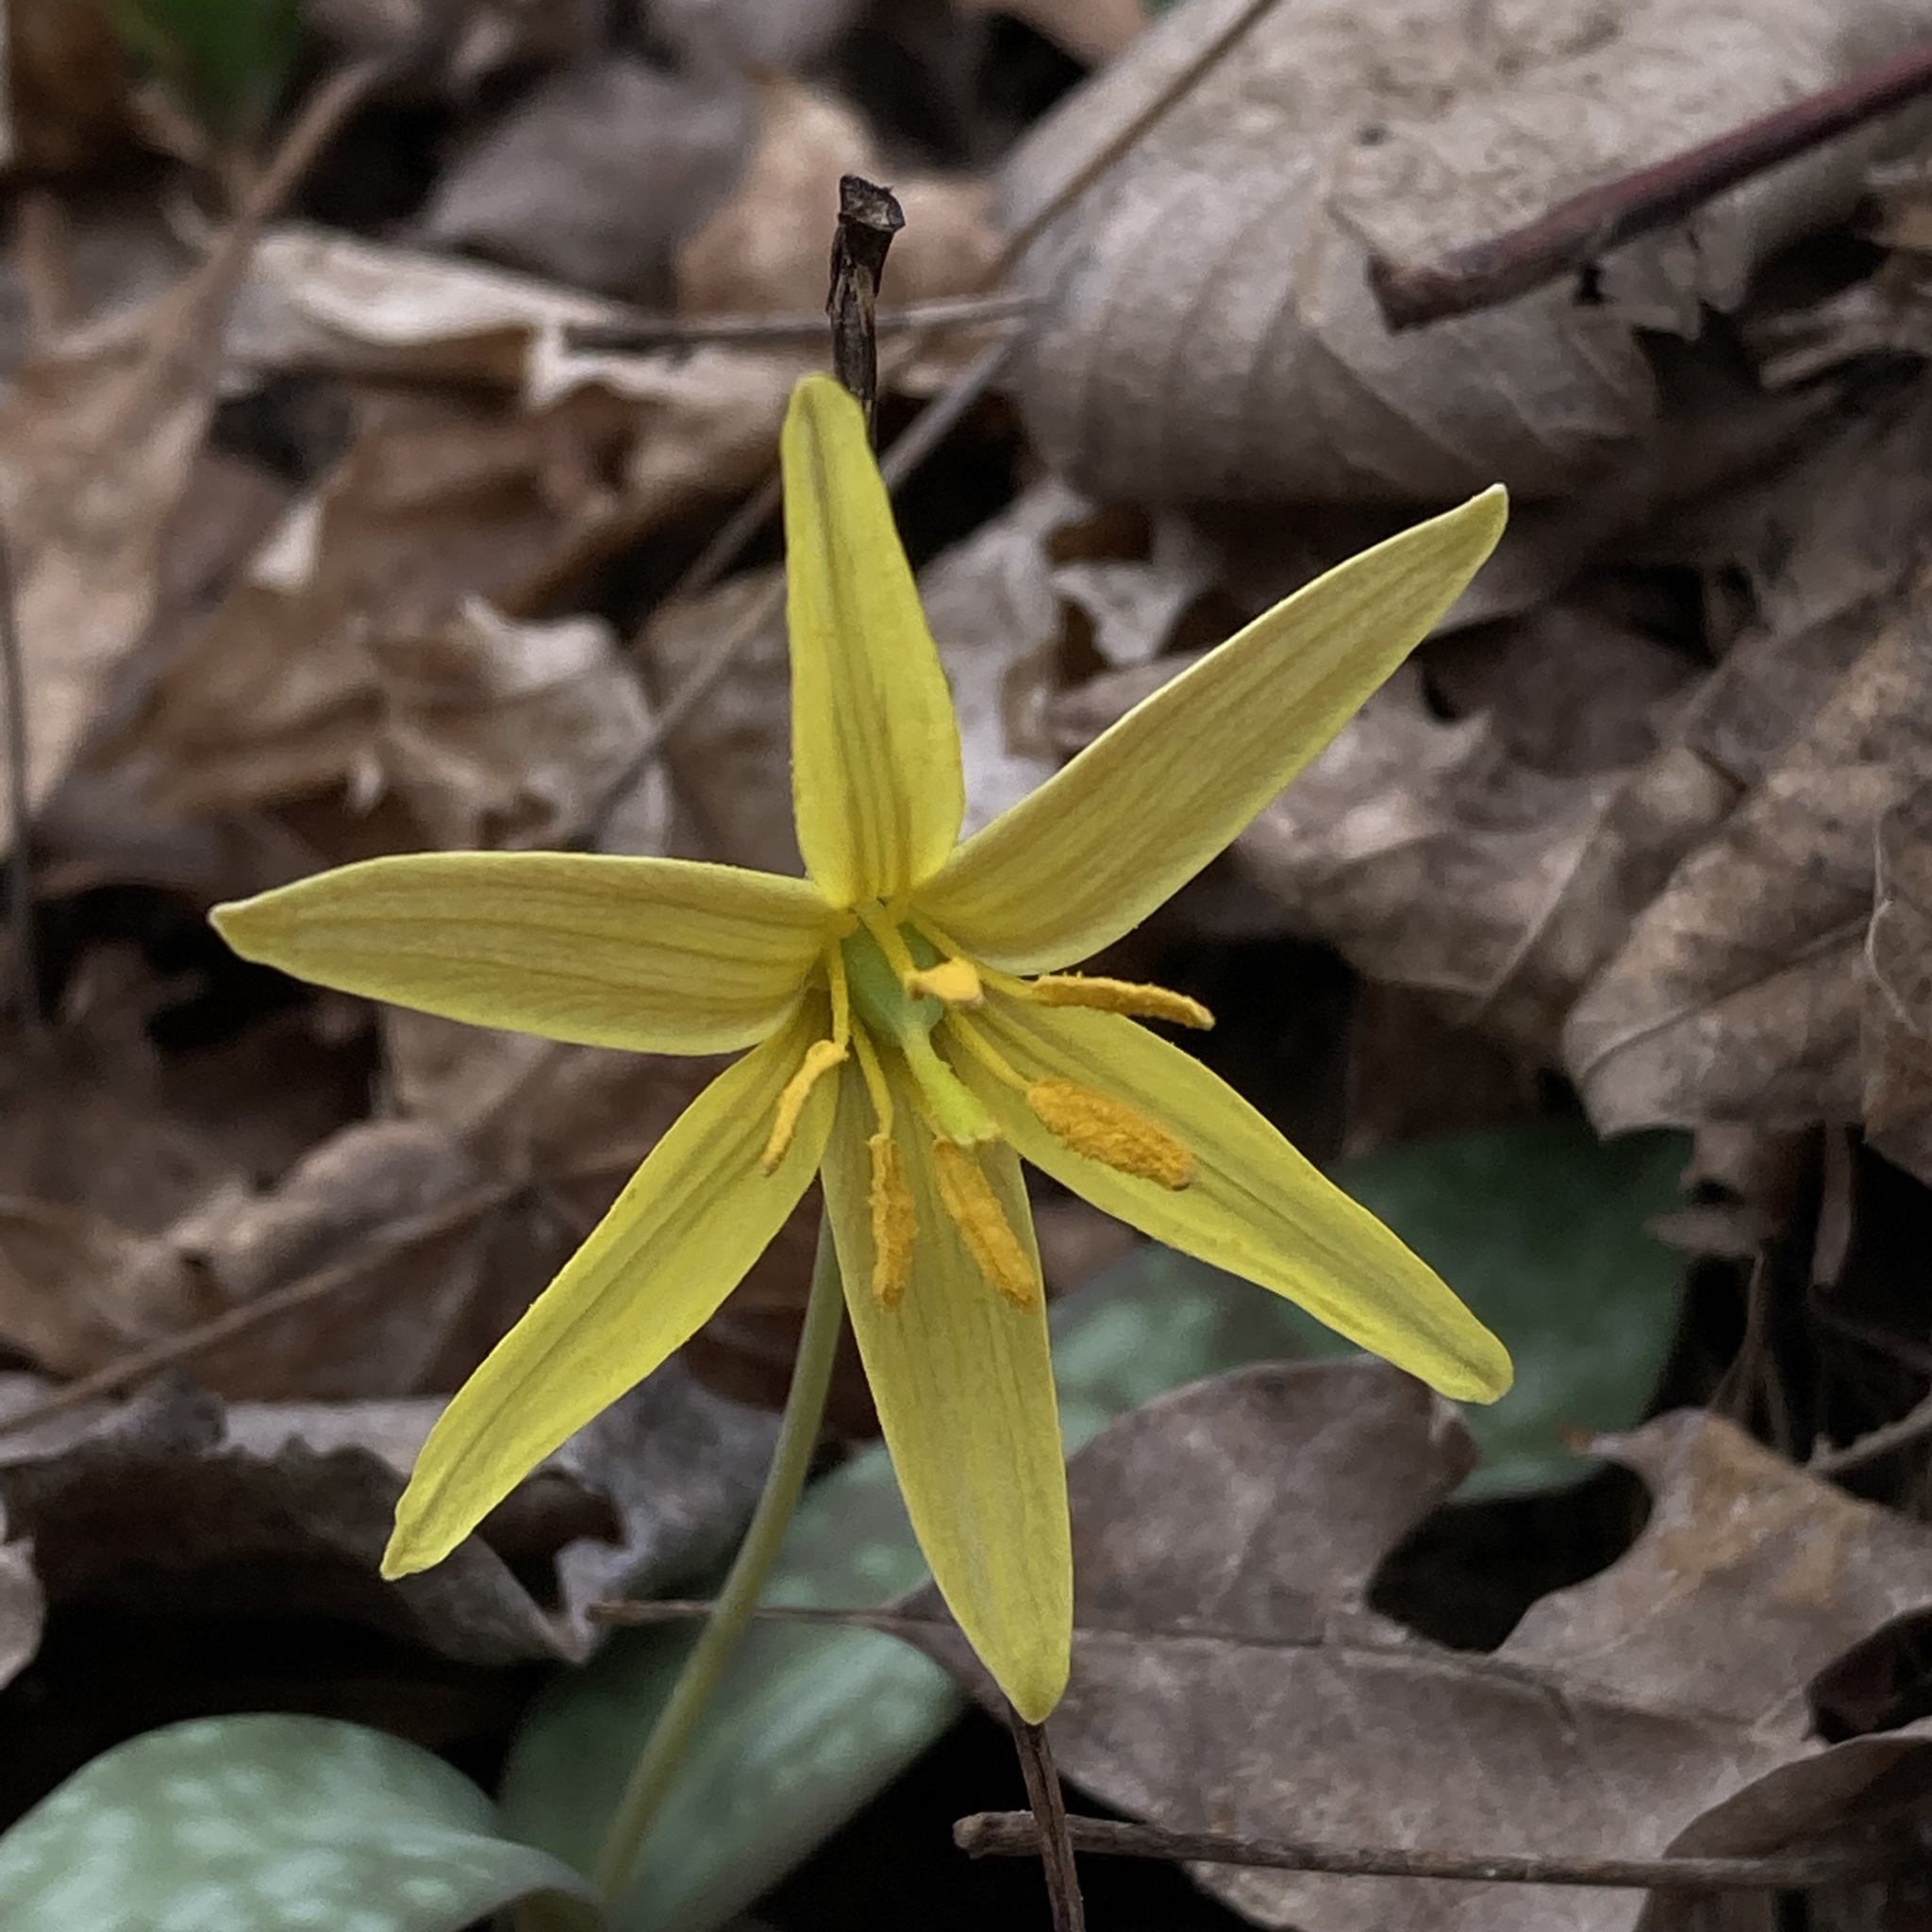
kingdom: Plantae
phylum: Tracheophyta
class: Liliopsida
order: Liliales
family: Liliaceae
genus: Erythronium
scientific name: Erythronium rostratum
